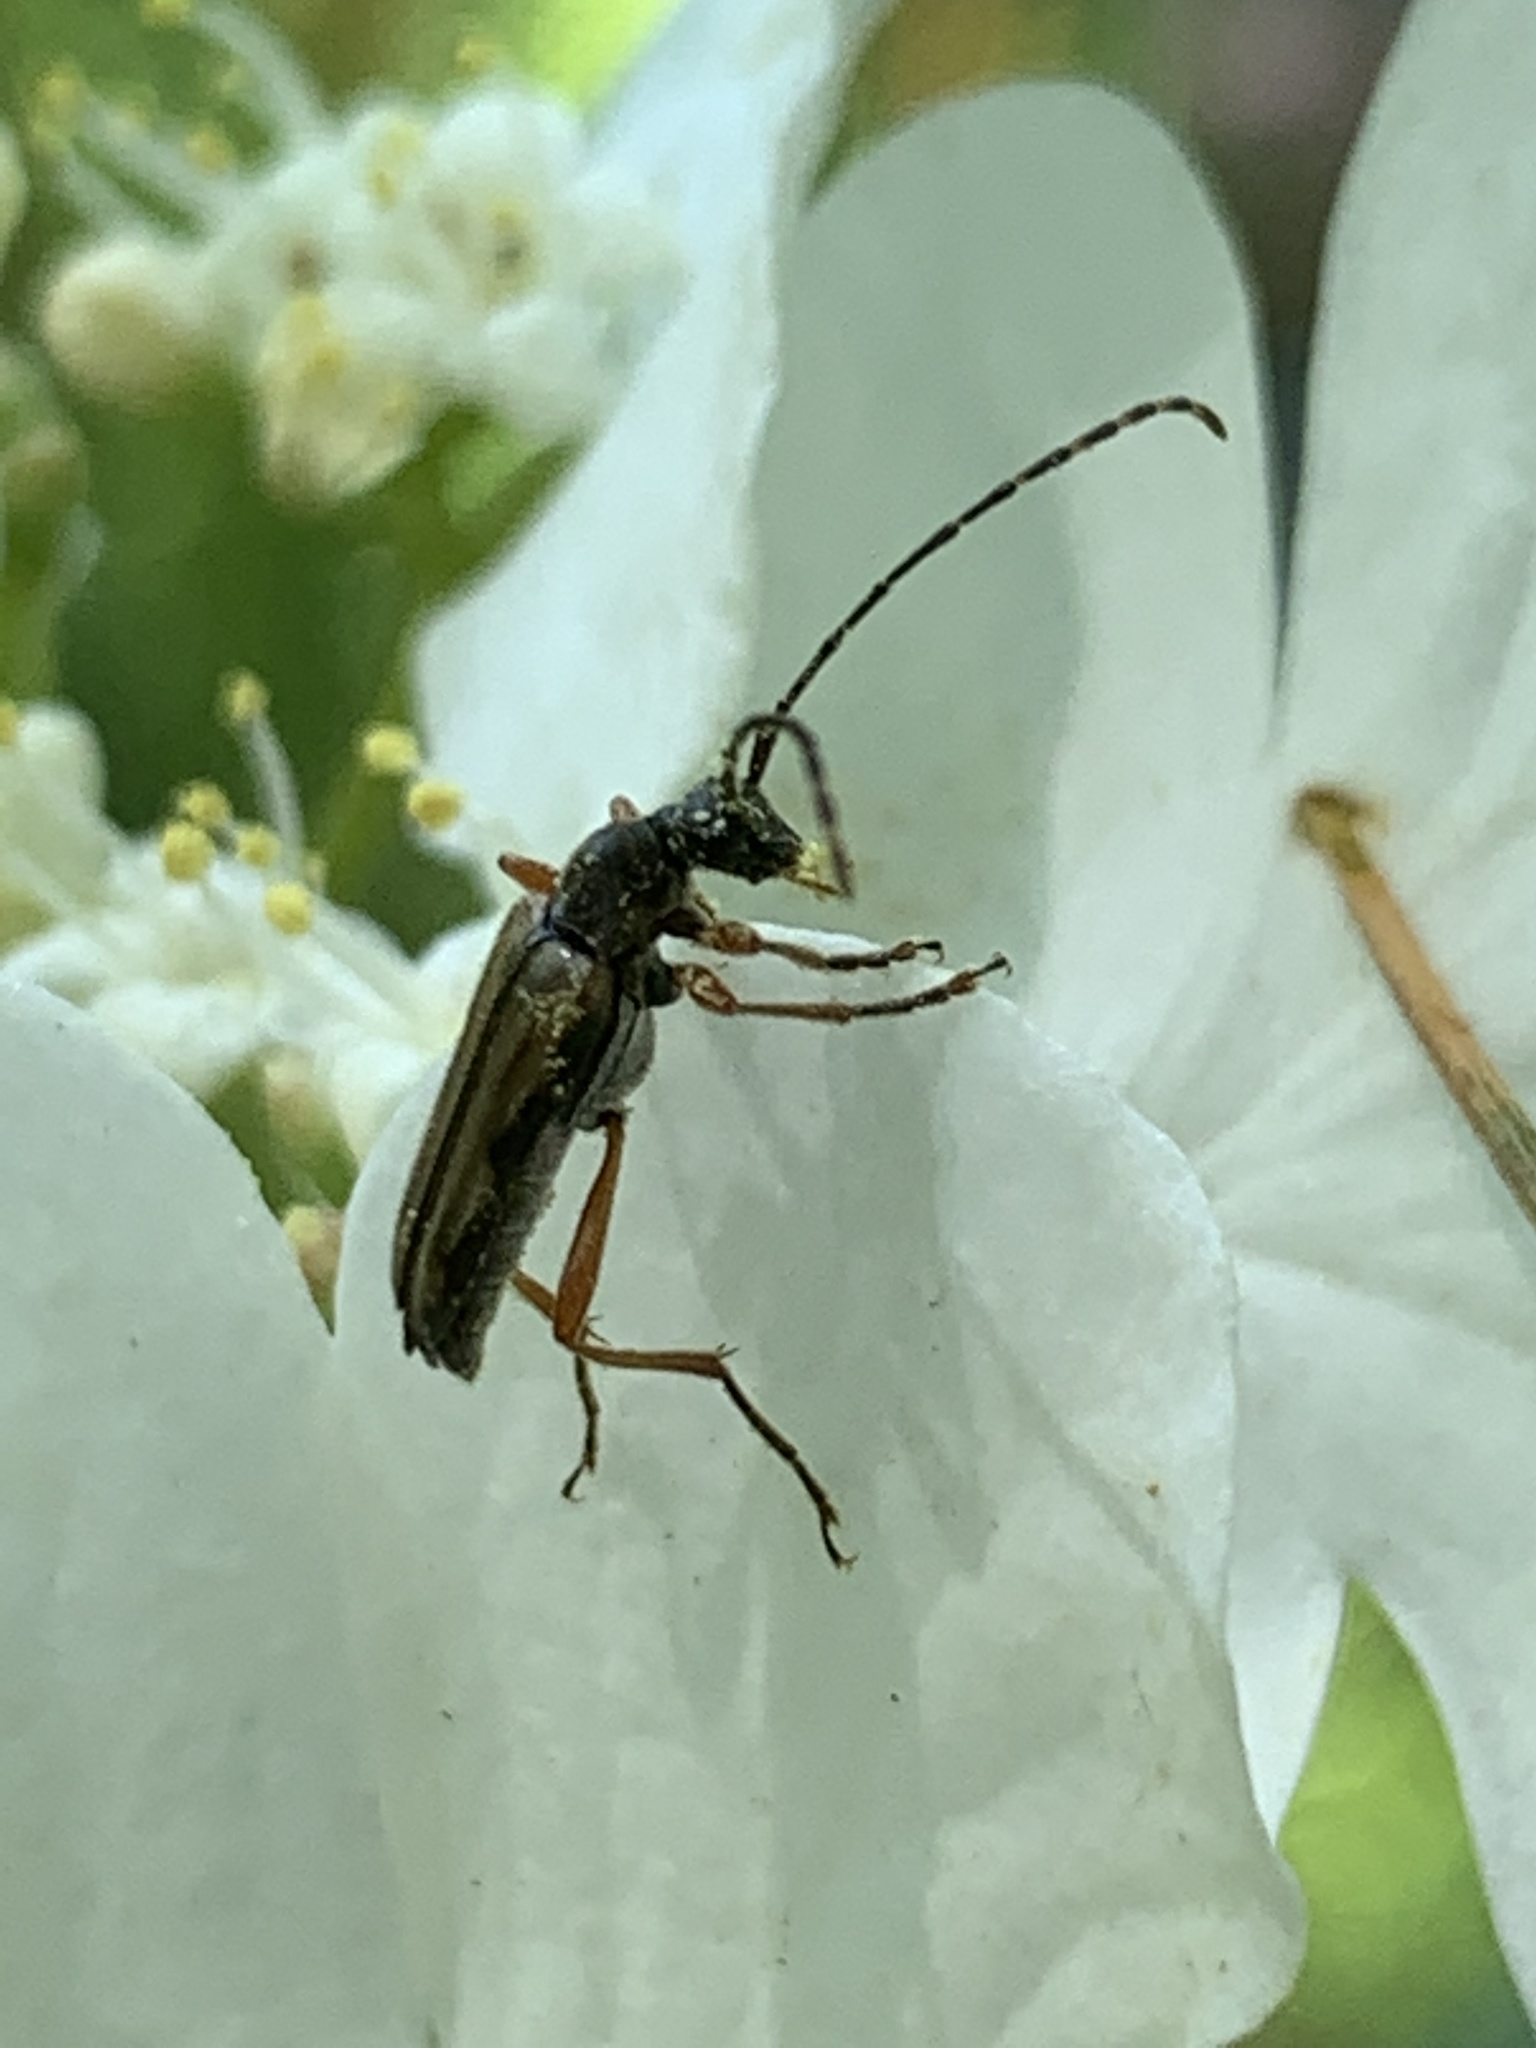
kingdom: Animalia
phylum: Arthropoda
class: Insecta
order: Coleoptera
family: Cerambycidae
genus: Analeptura
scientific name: Analeptura lineola
